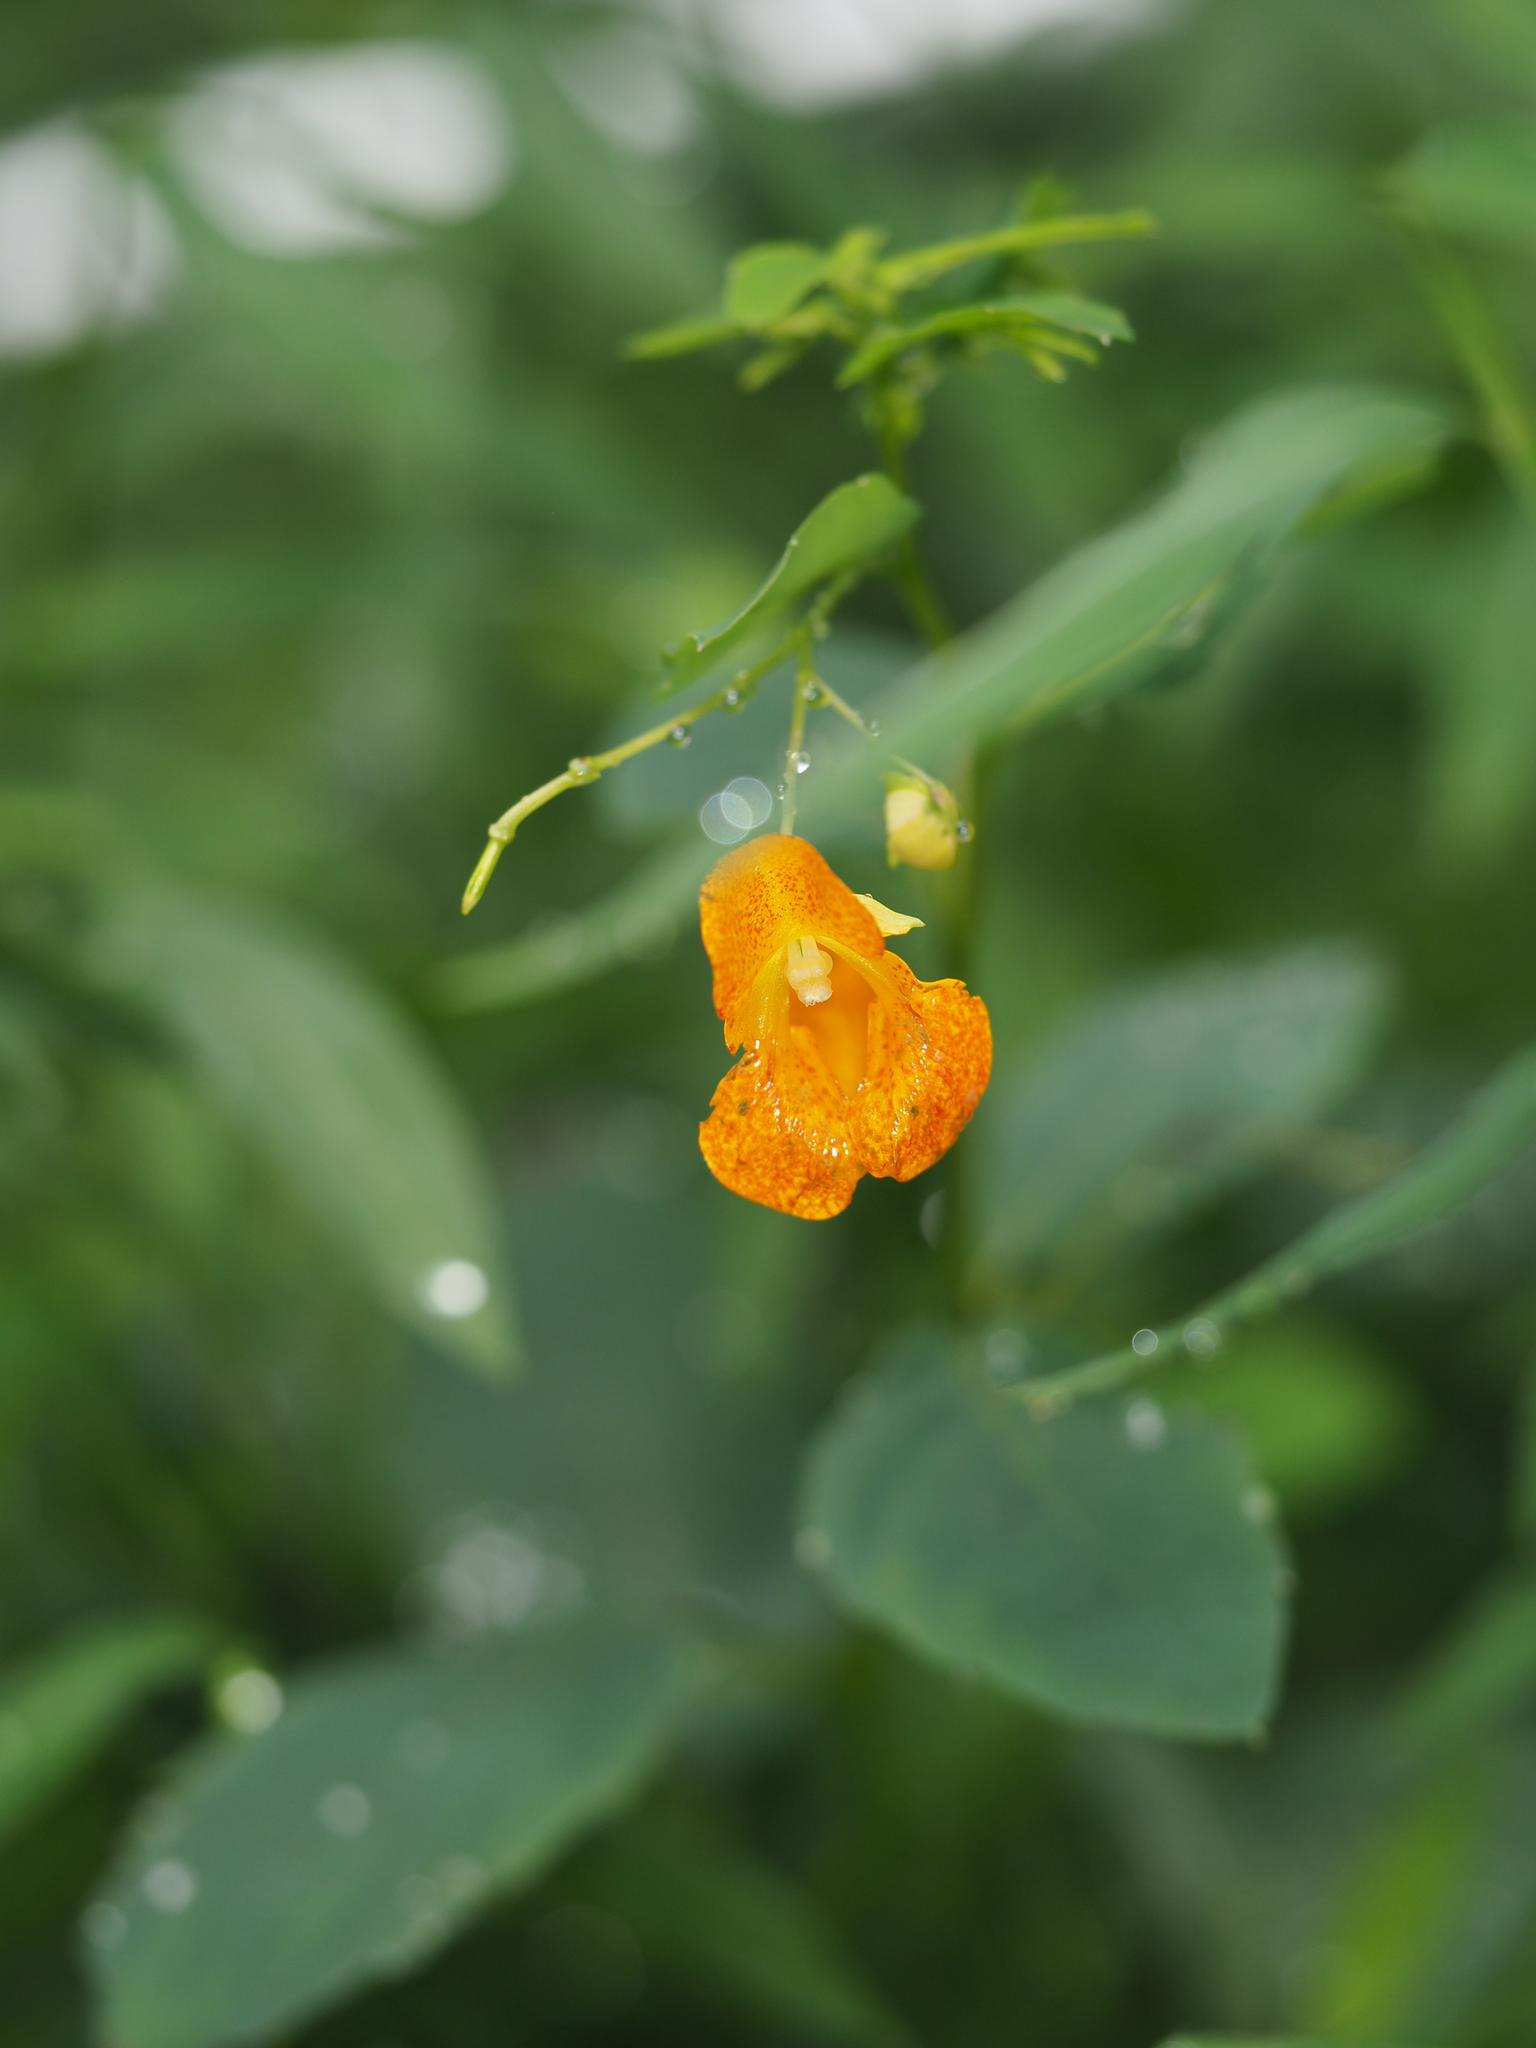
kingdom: Plantae
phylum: Tracheophyta
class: Magnoliopsida
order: Ericales
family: Balsaminaceae
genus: Impatiens
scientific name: Impatiens capensis
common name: Orange balsam
